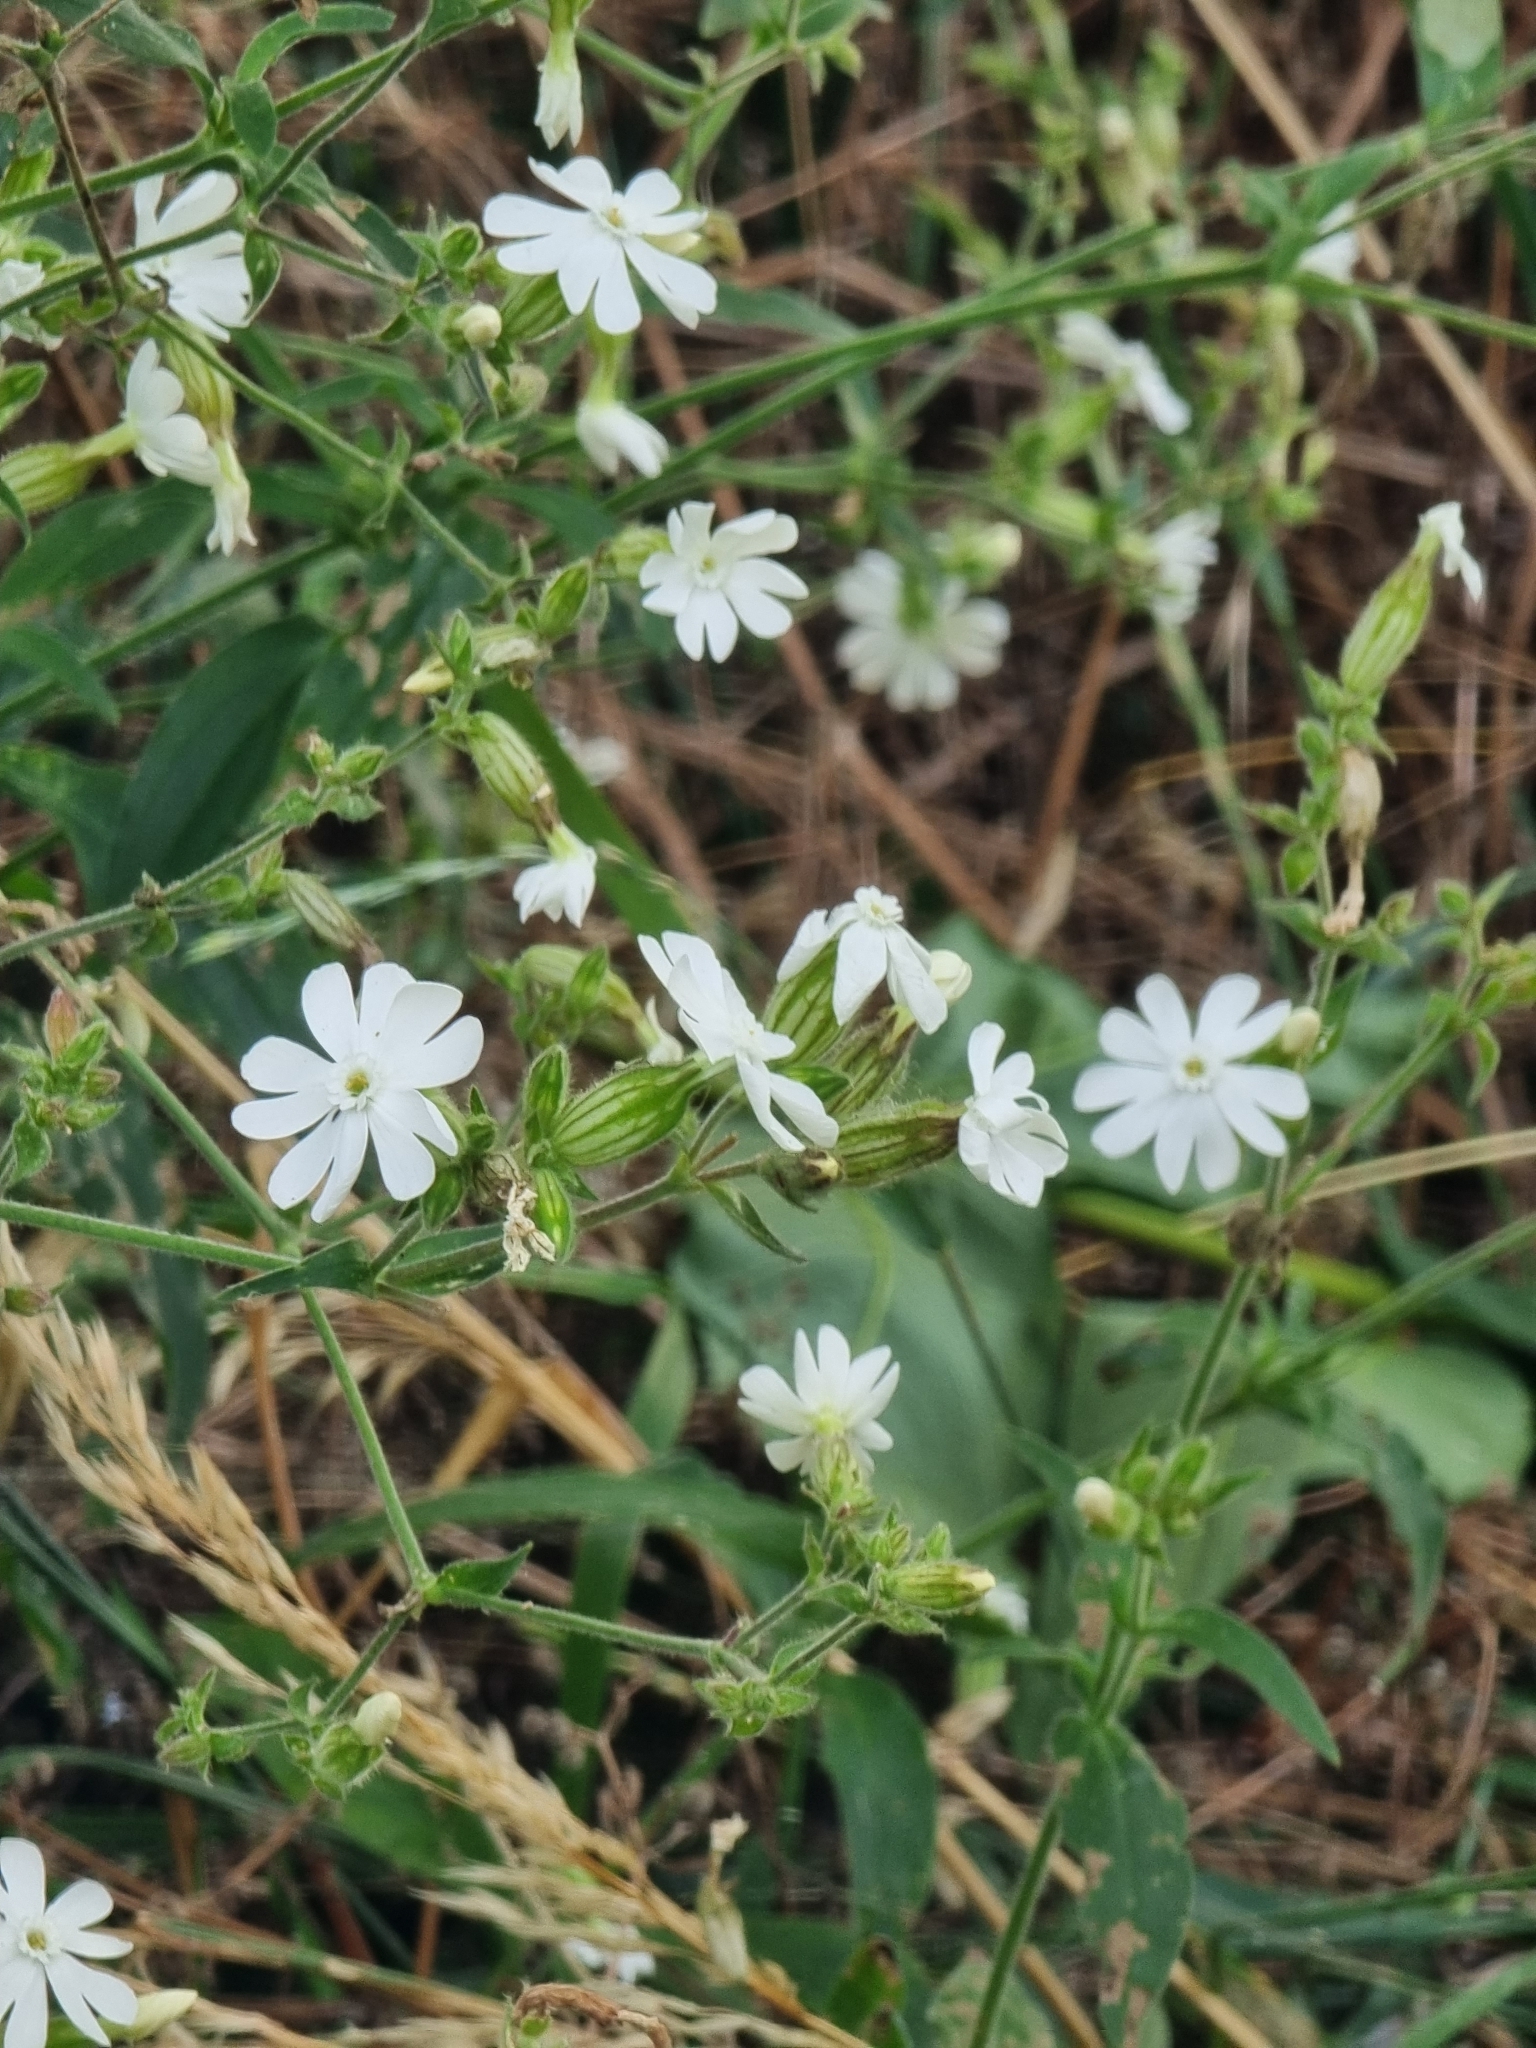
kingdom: Plantae
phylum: Tracheophyta
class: Magnoliopsida
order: Caryophyllales
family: Caryophyllaceae
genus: Silene
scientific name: Silene latifolia
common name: White campion
